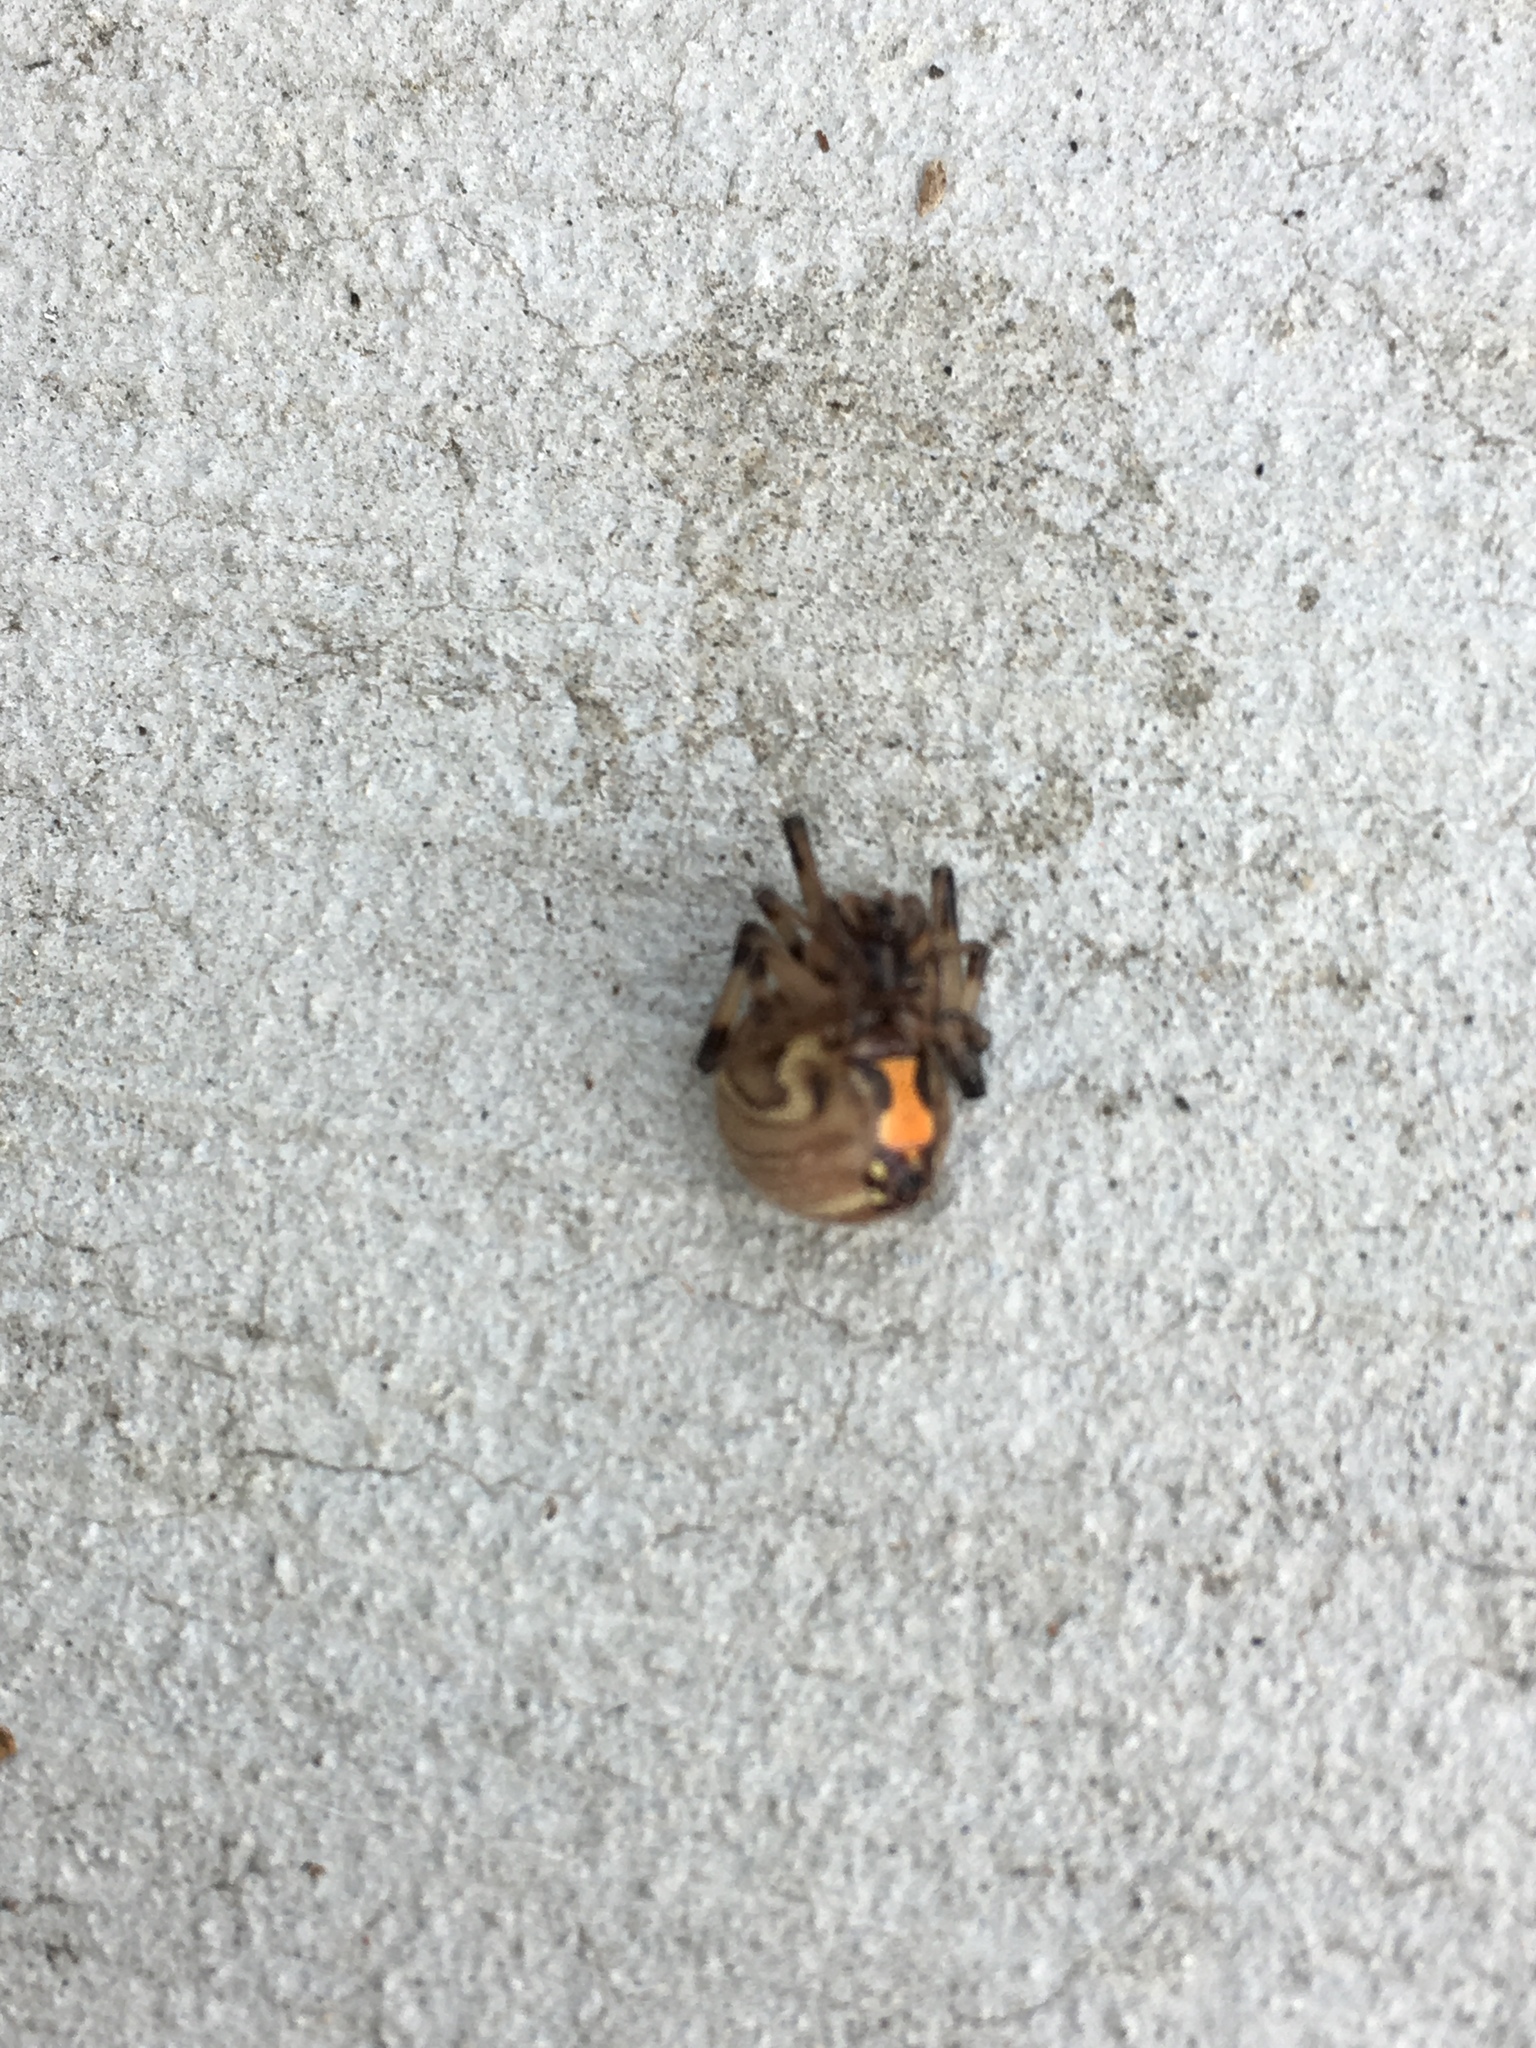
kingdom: Animalia
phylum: Arthropoda
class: Arachnida
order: Araneae
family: Theridiidae
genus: Latrodectus
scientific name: Latrodectus geometricus
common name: Brown widow spider
